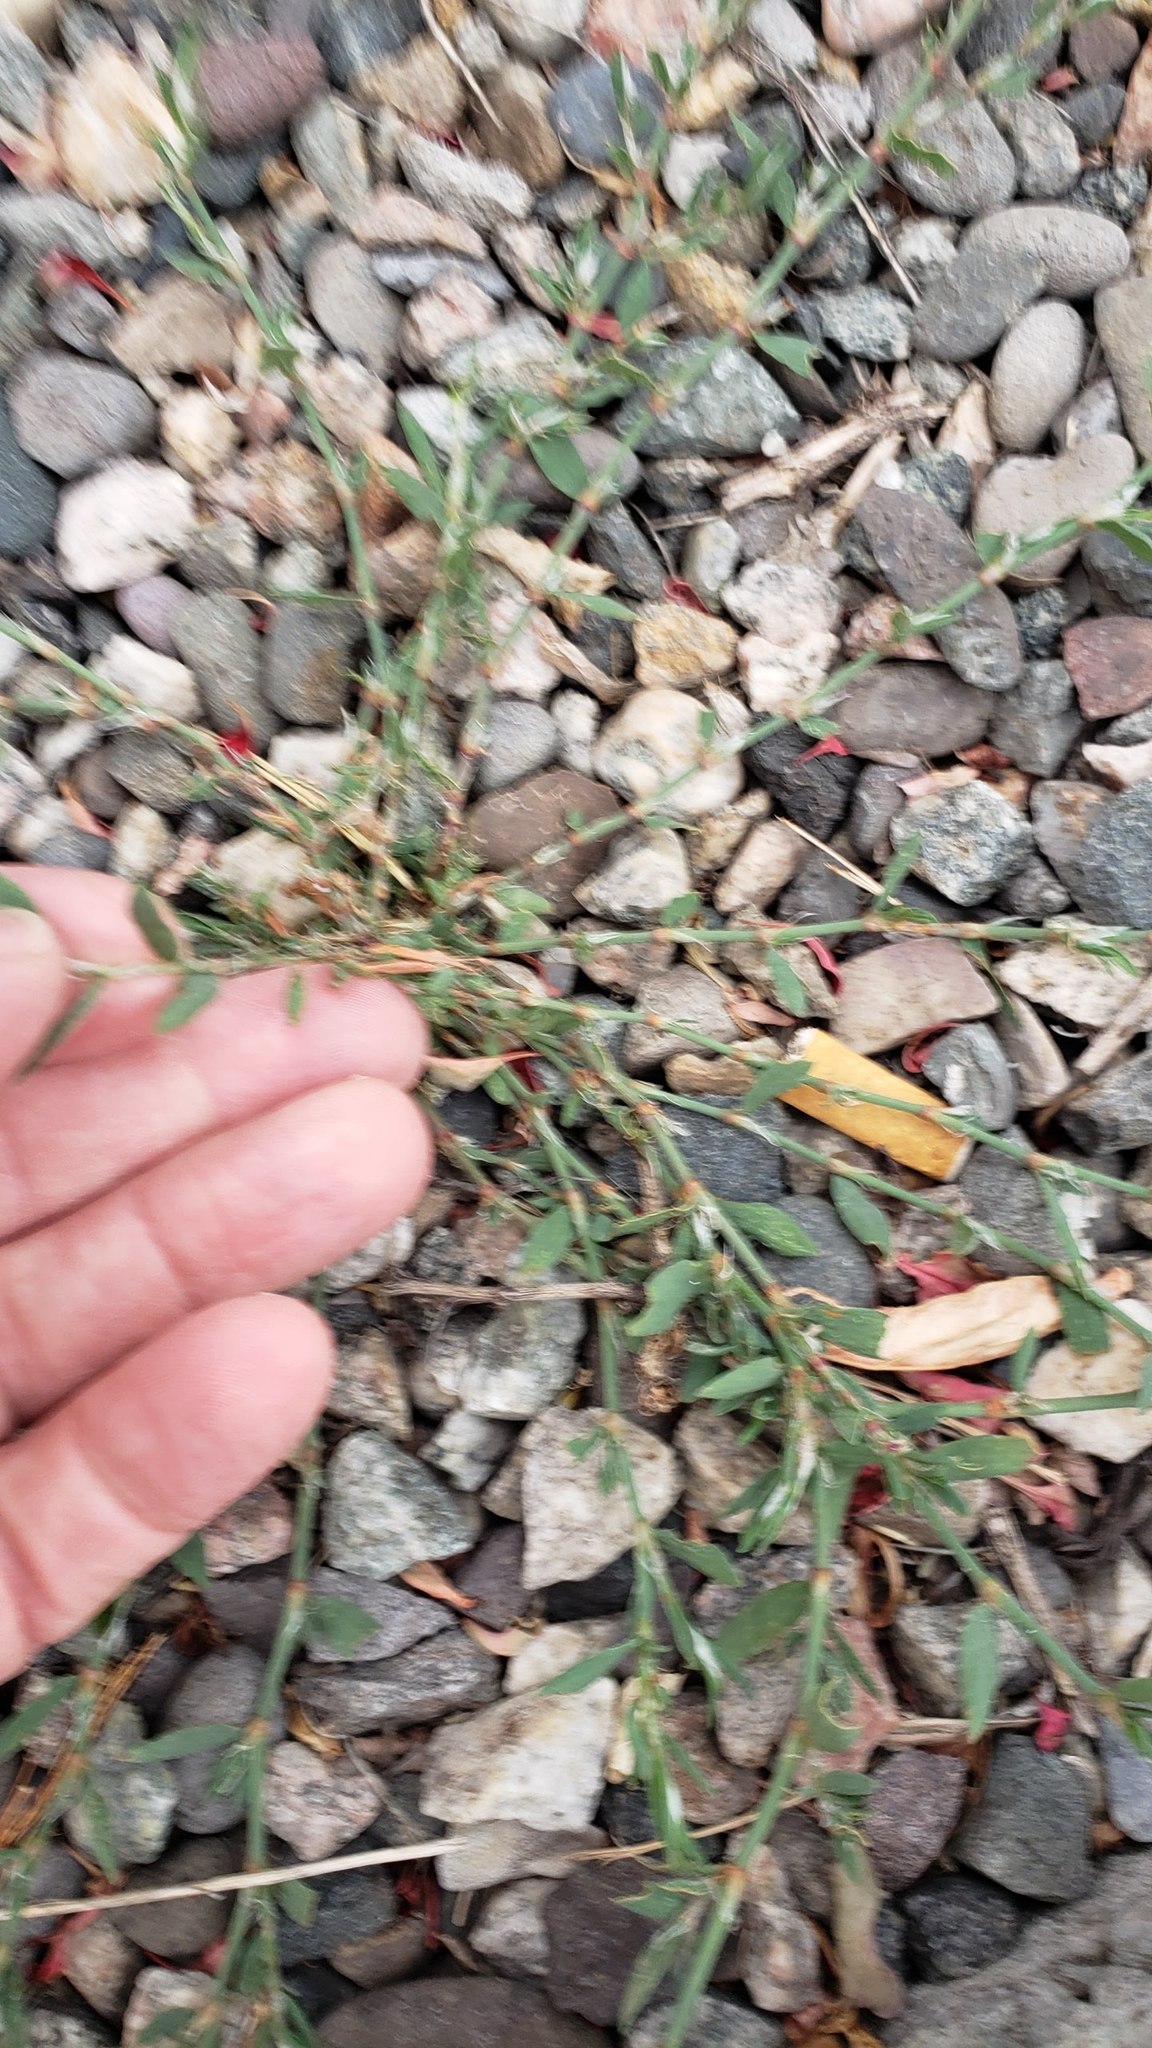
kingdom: Plantae
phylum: Tracheophyta
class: Magnoliopsida
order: Caryophyllales
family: Polygonaceae
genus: Polygonum
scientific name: Polygonum aviculare
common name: Prostrate knotweed
